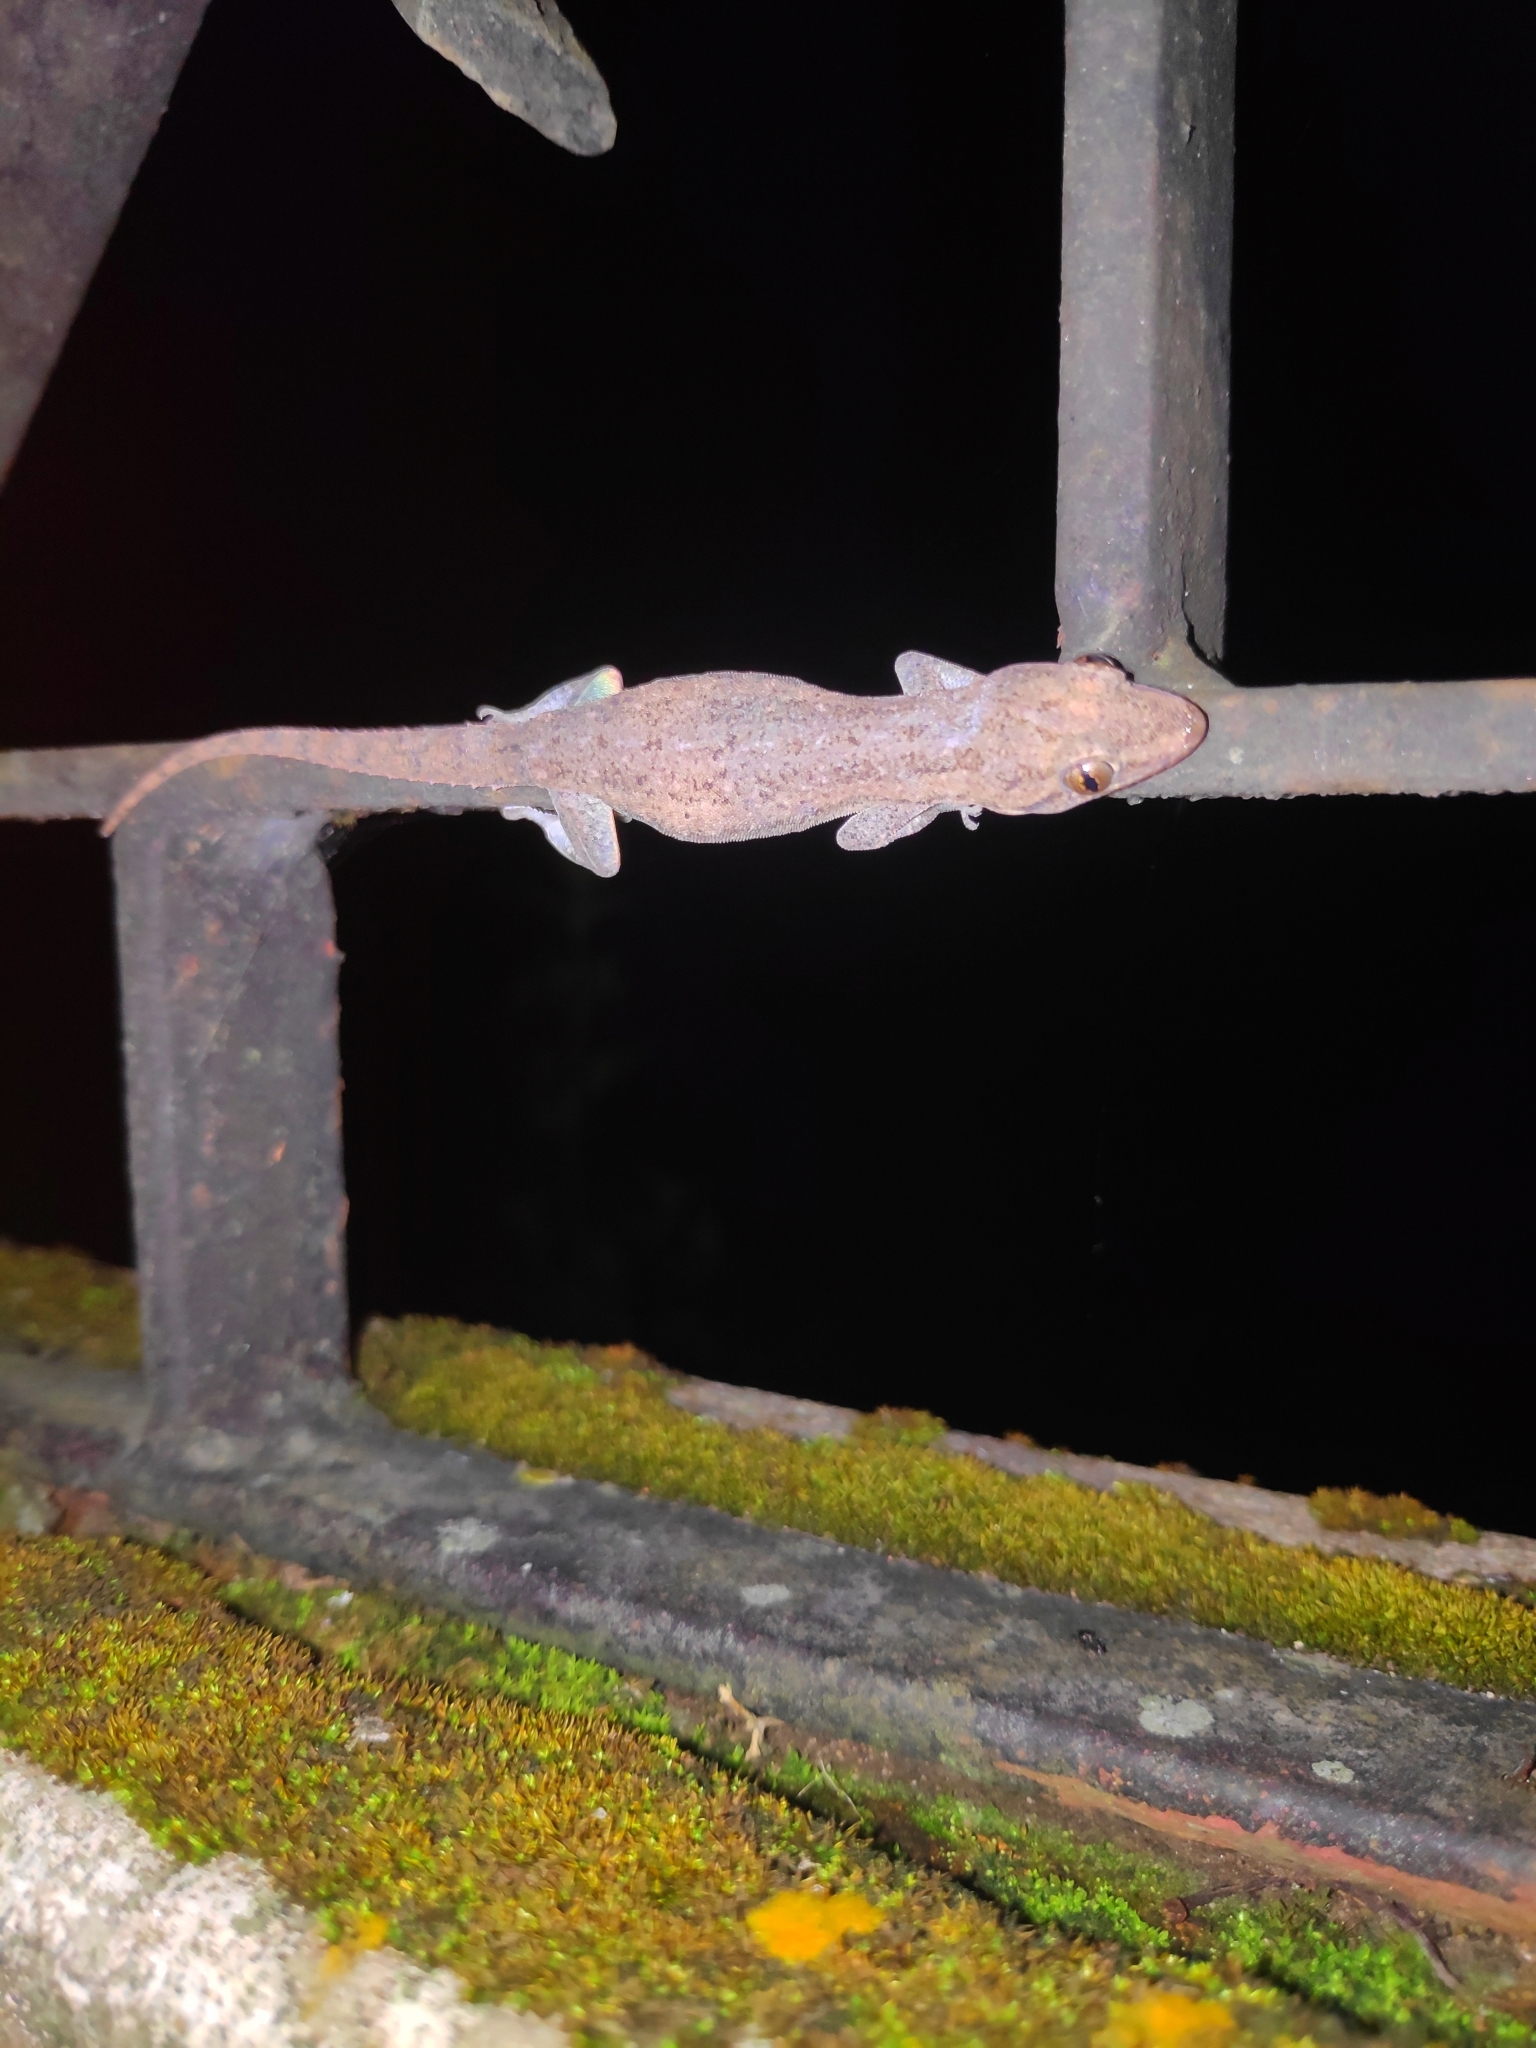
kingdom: Animalia
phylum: Chordata
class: Squamata
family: Gekkonidae
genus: Hemidactylus
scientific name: Hemidactylus frenatus
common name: Common house gecko
